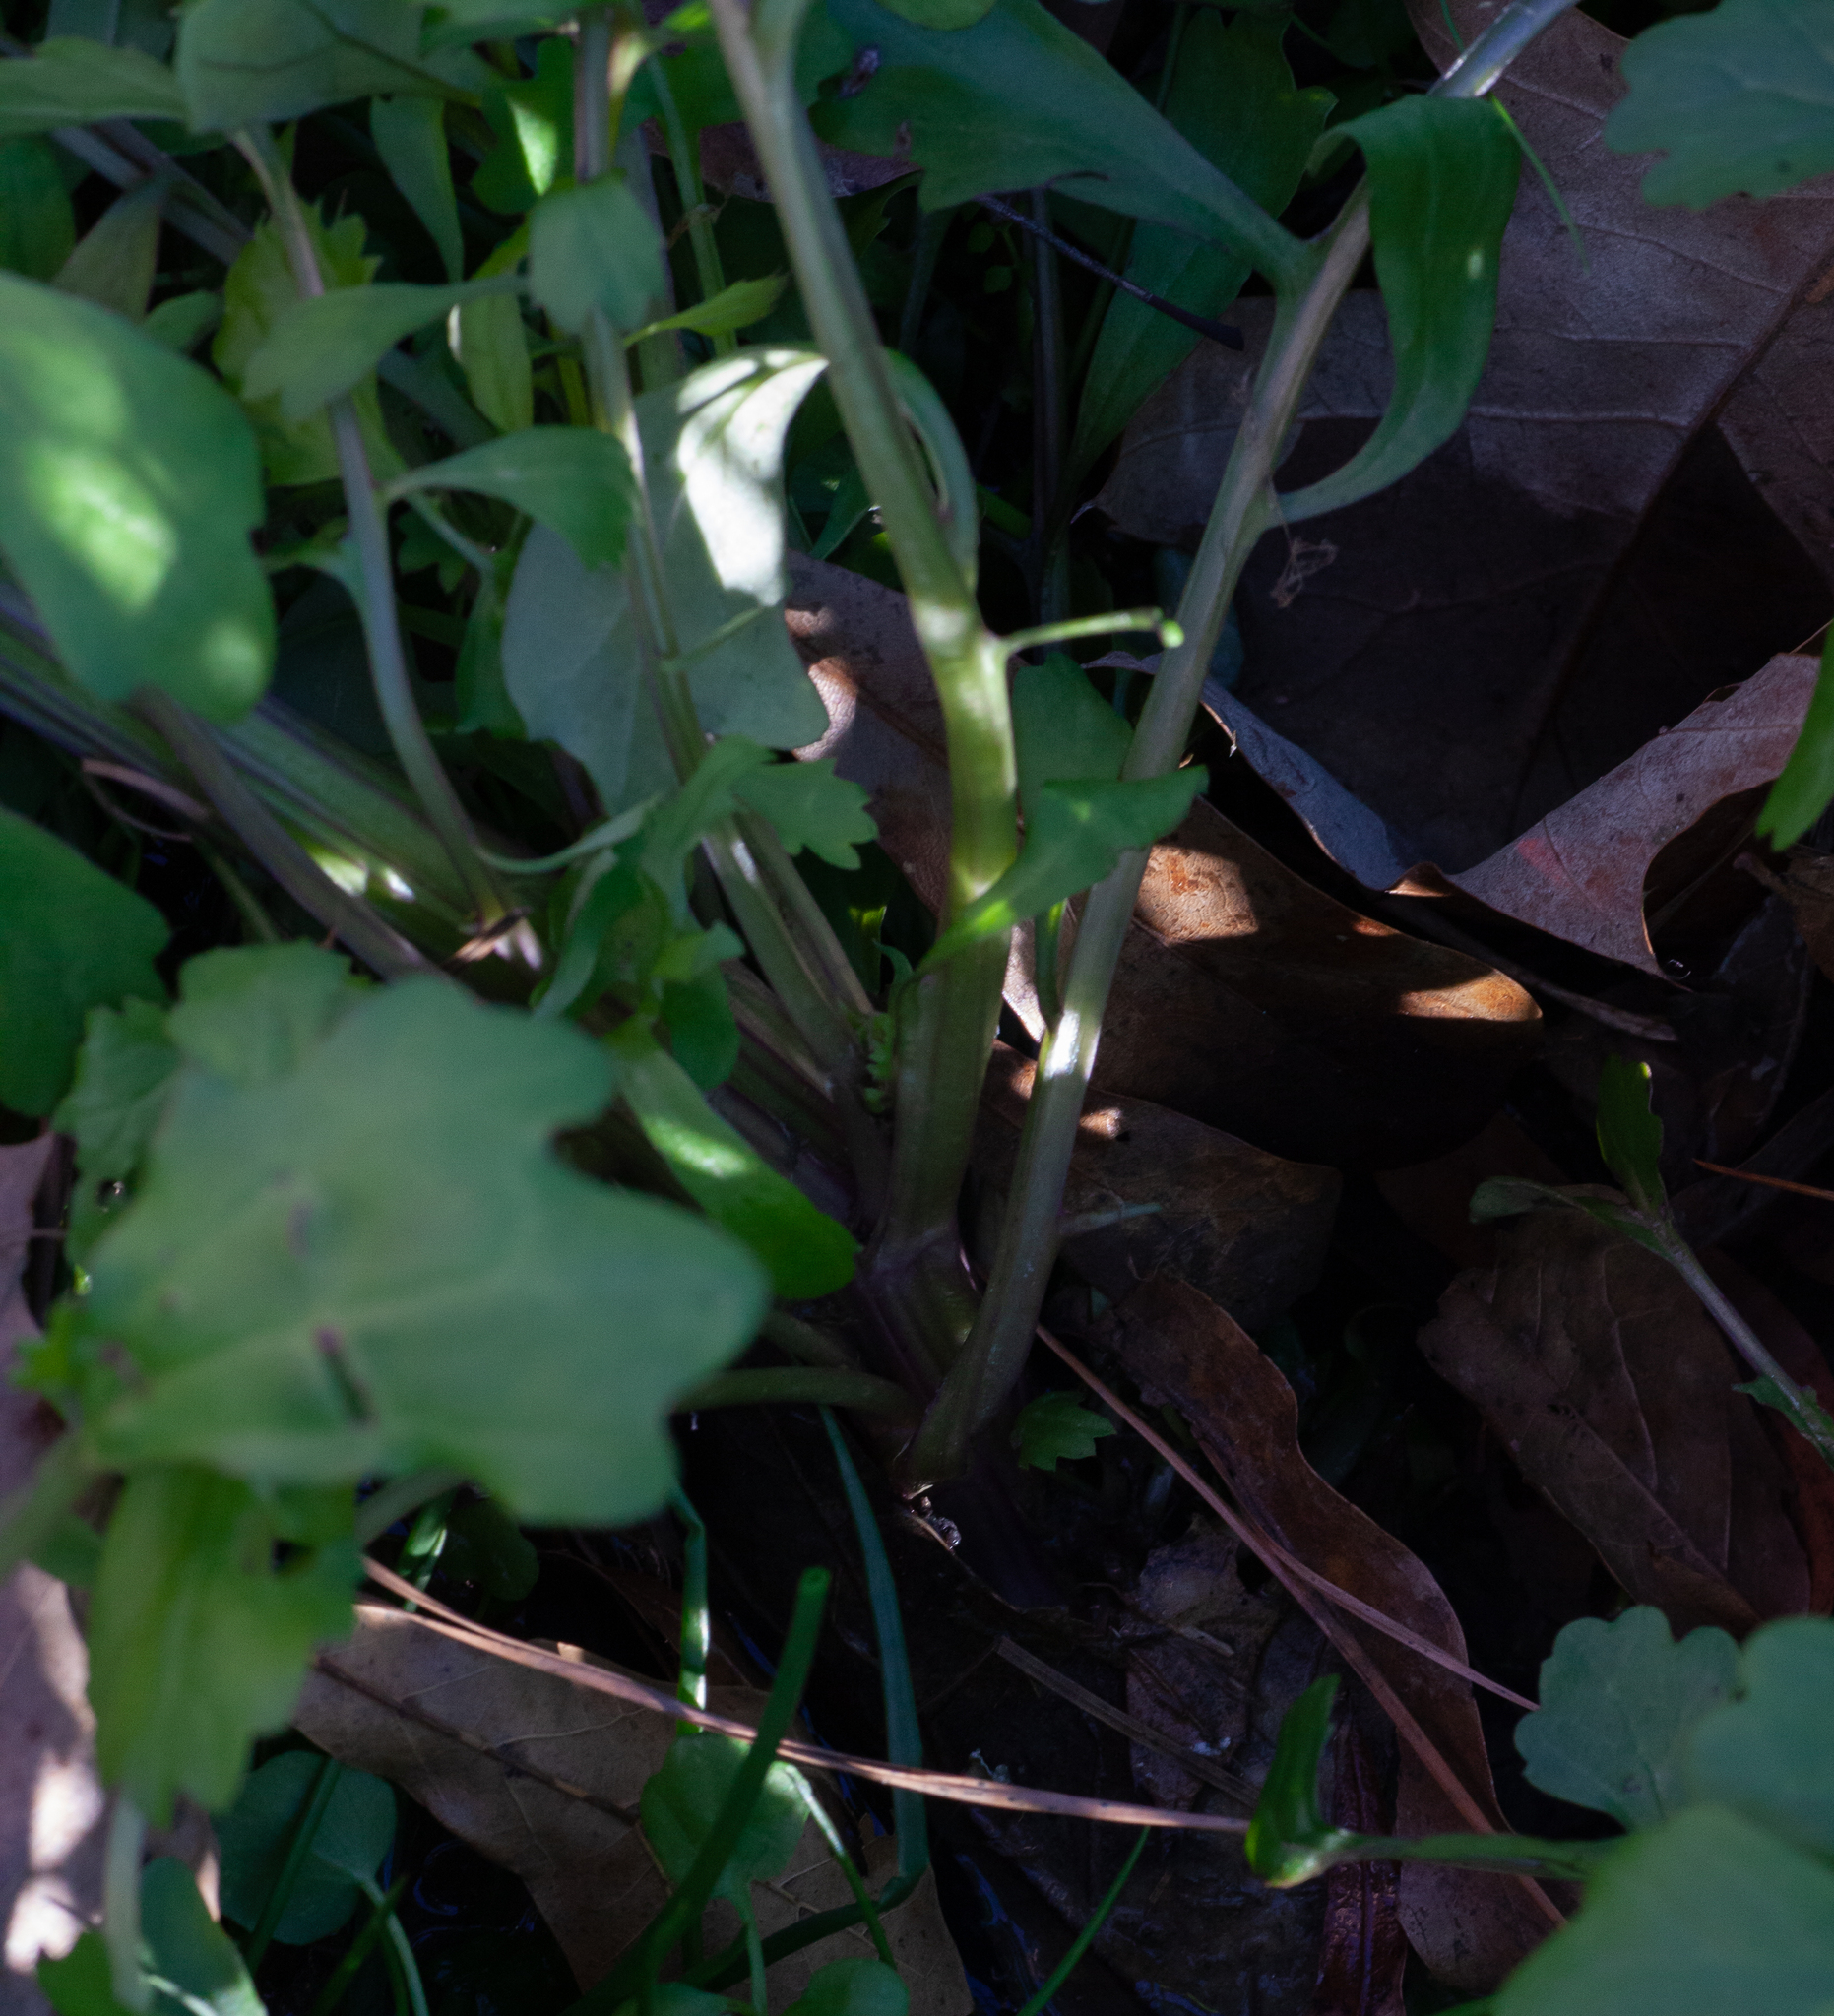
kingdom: Plantae
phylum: Tracheophyta
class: Magnoliopsida
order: Asterales
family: Asteraceae
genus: Packera
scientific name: Packera glabella
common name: Butterweed
